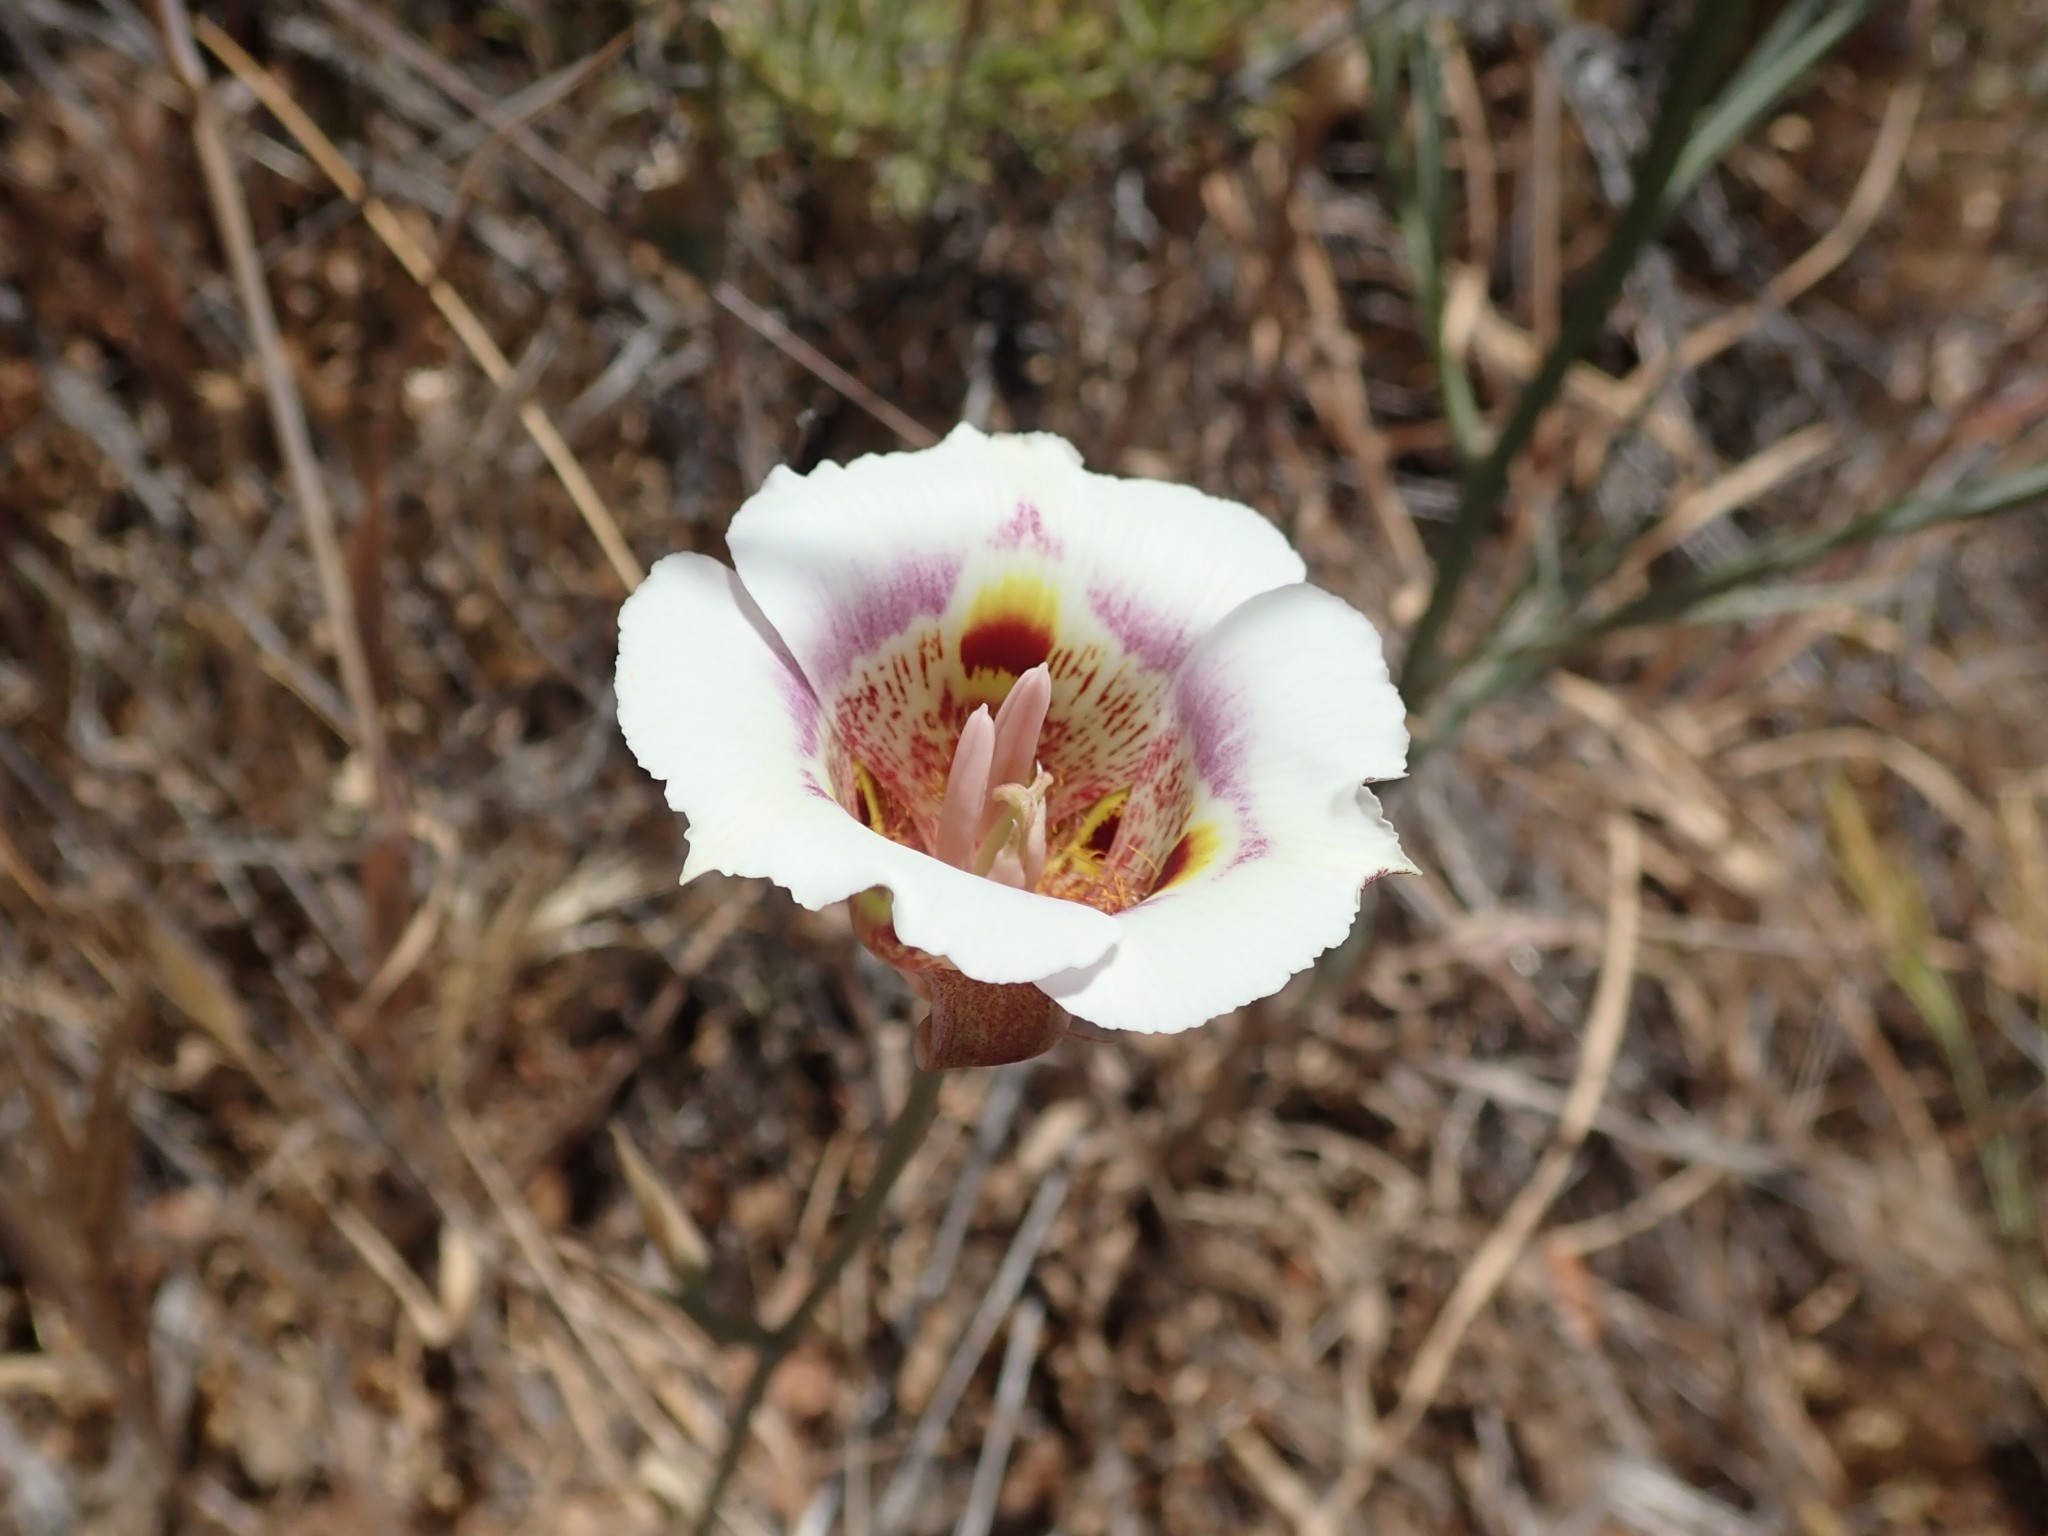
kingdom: Plantae
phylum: Tracheophyta
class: Liliopsida
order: Liliales
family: Liliaceae
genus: Calochortus
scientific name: Calochortus argillosus
